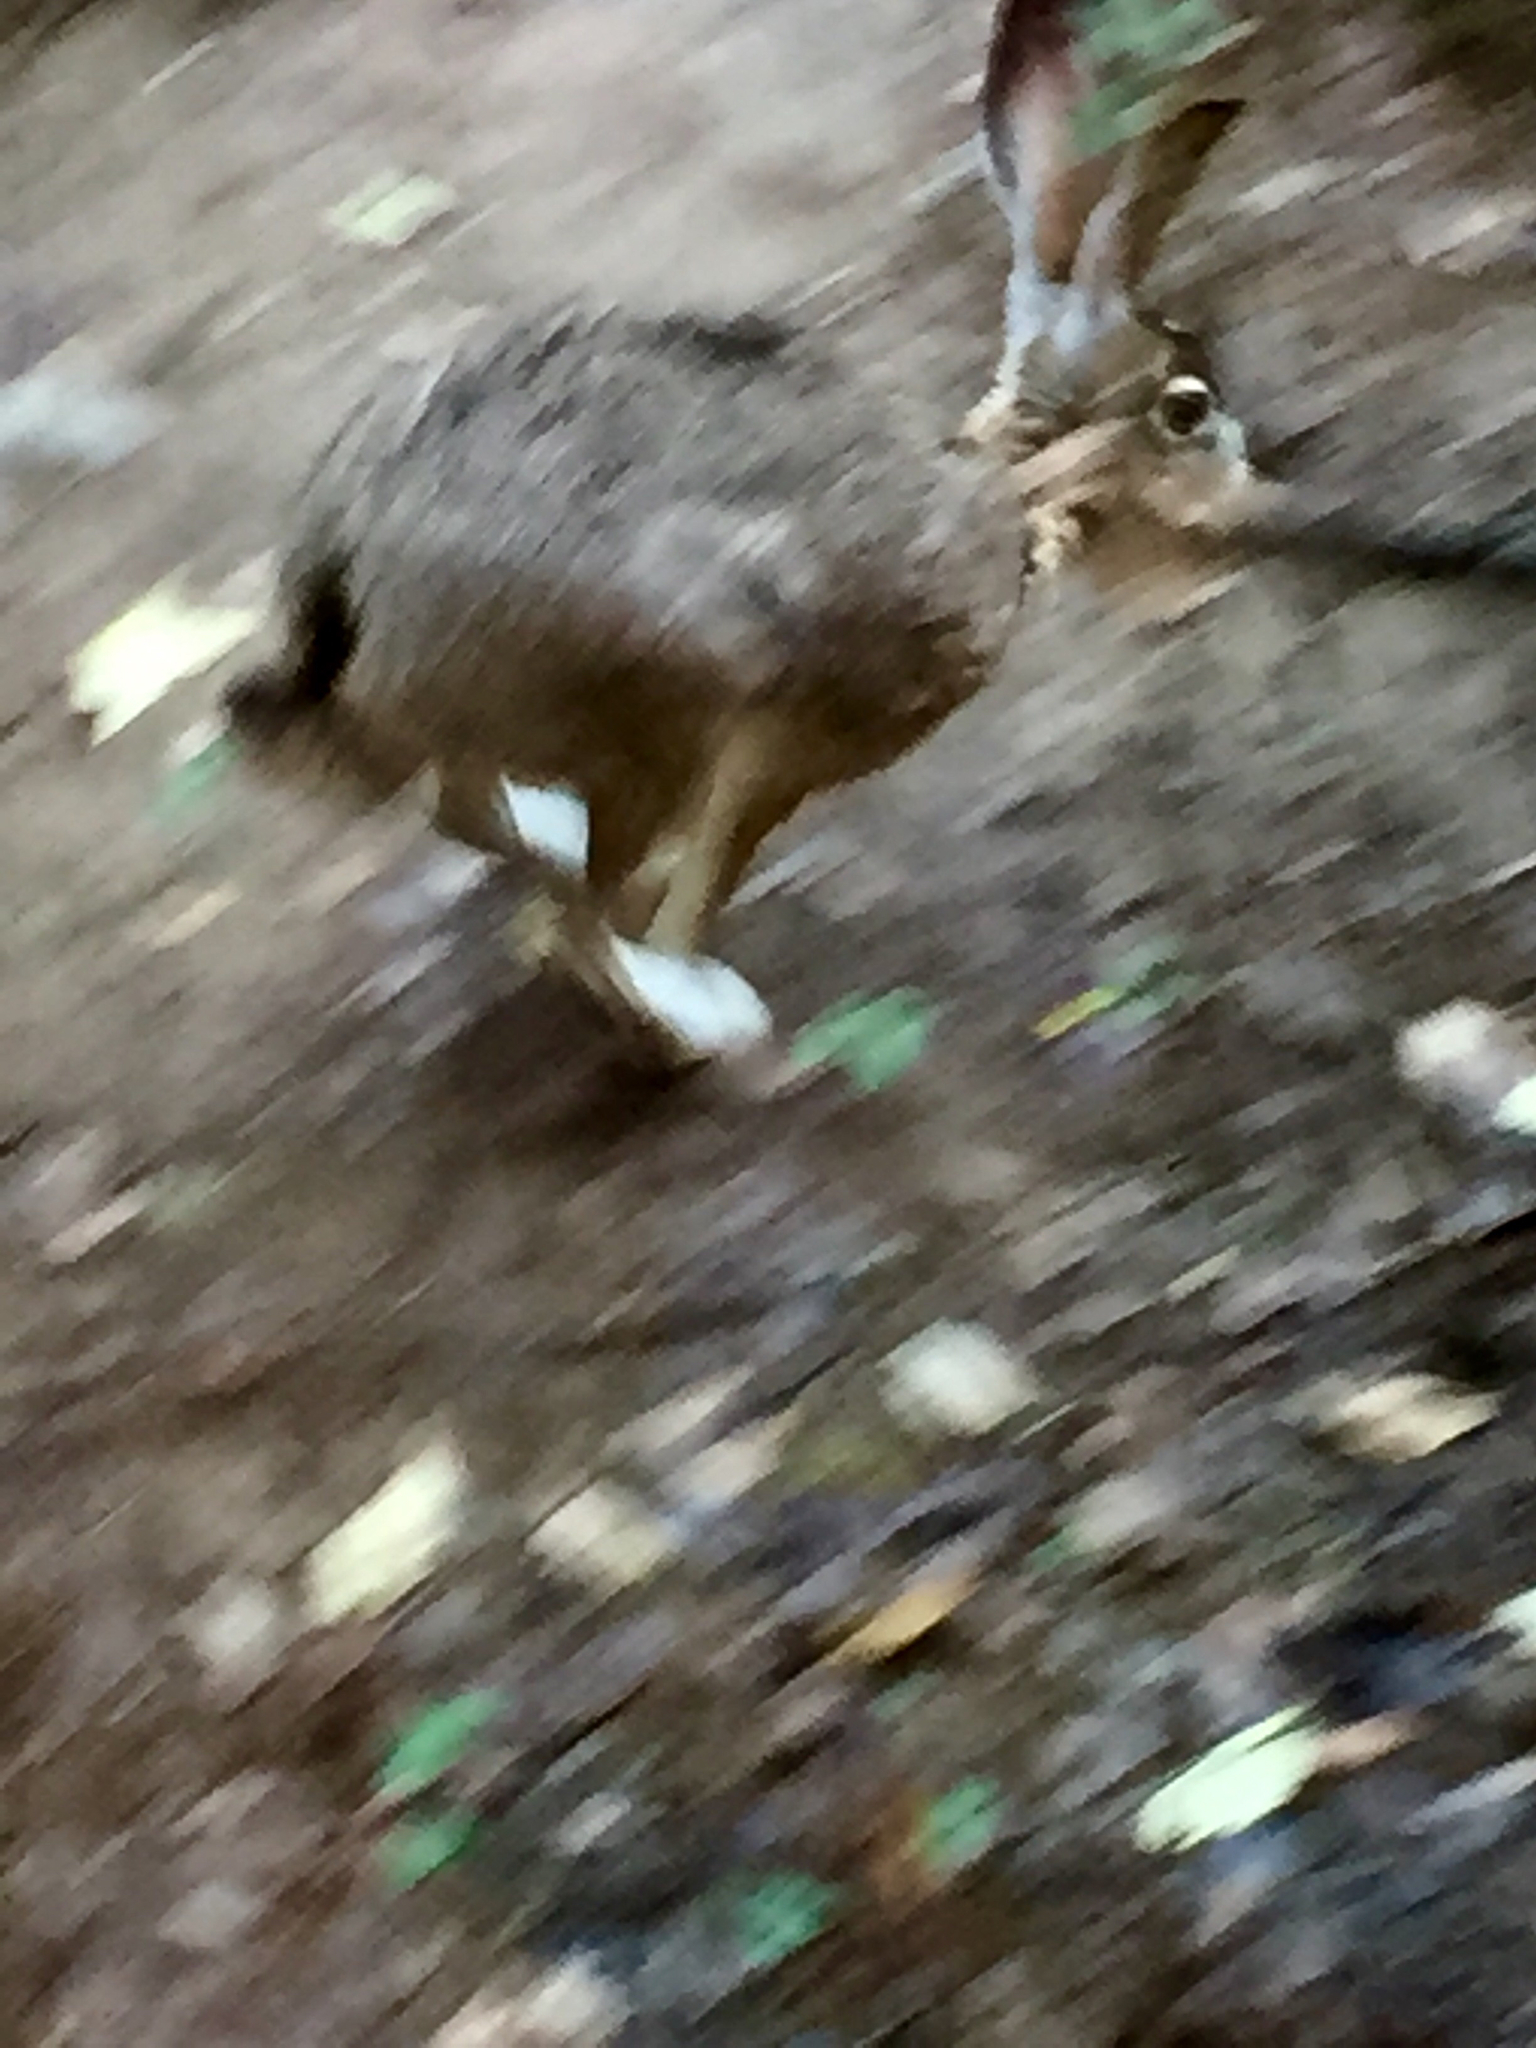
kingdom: Animalia
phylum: Chordata
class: Mammalia
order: Lagomorpha
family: Leporidae
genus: Lepus
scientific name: Lepus californicus
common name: Black-tailed jackrabbit
